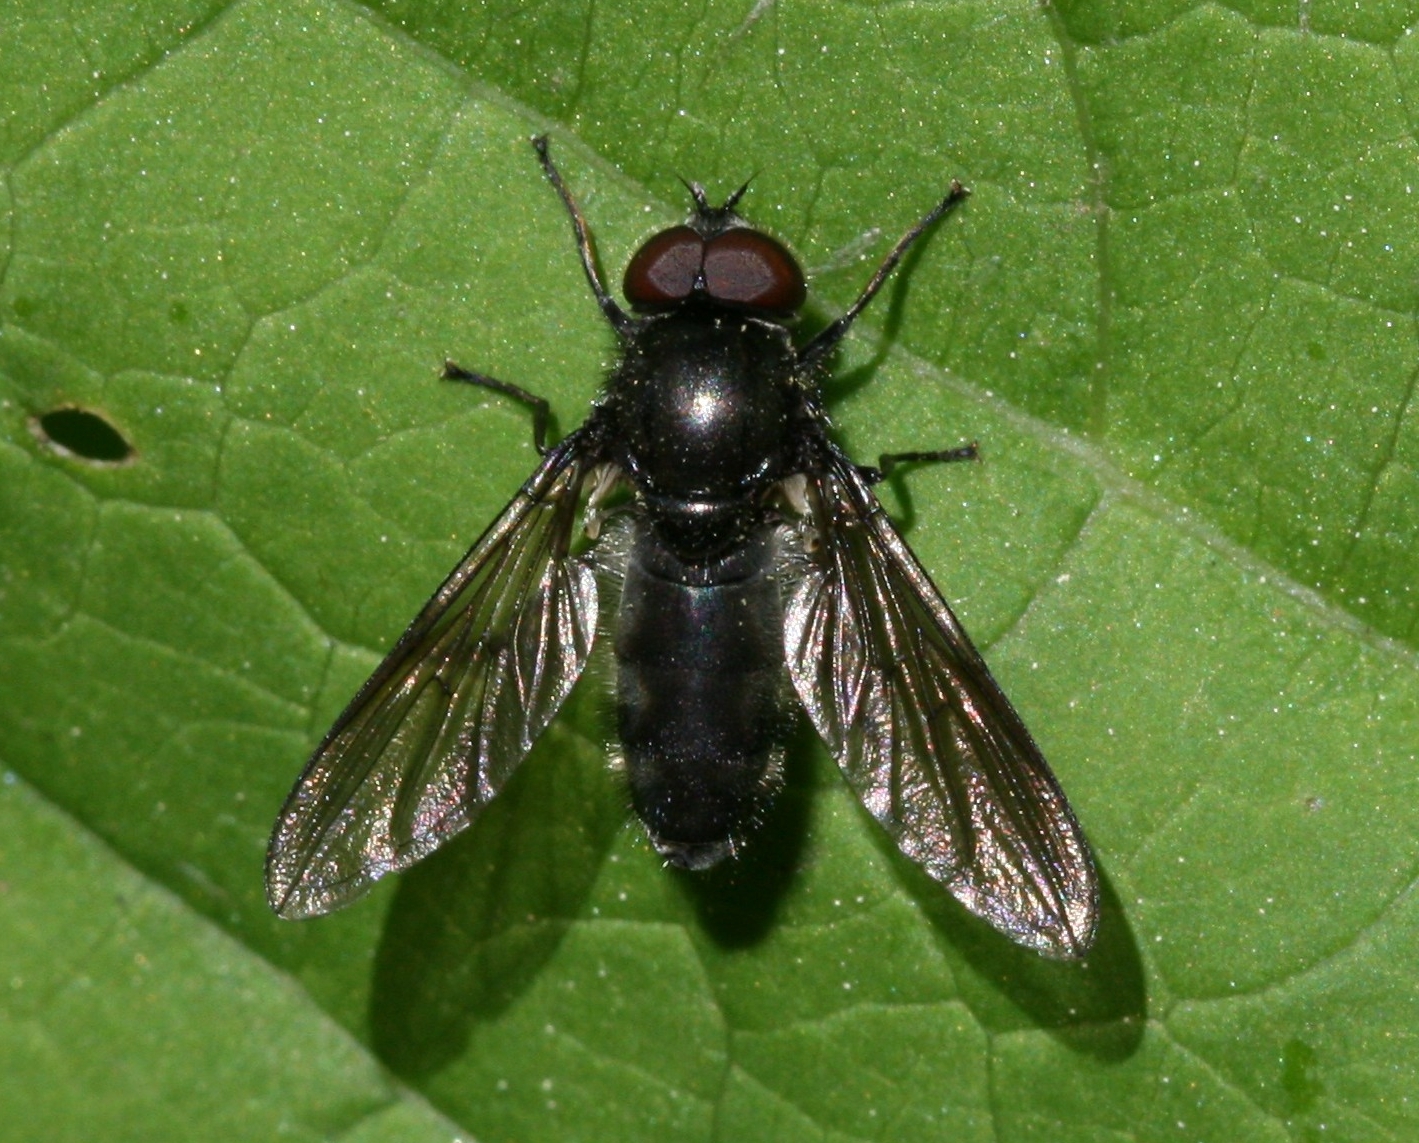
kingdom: Animalia
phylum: Arthropoda
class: Insecta
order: Diptera
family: Syrphidae
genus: Cheilosia
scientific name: Cheilosia variabilis
